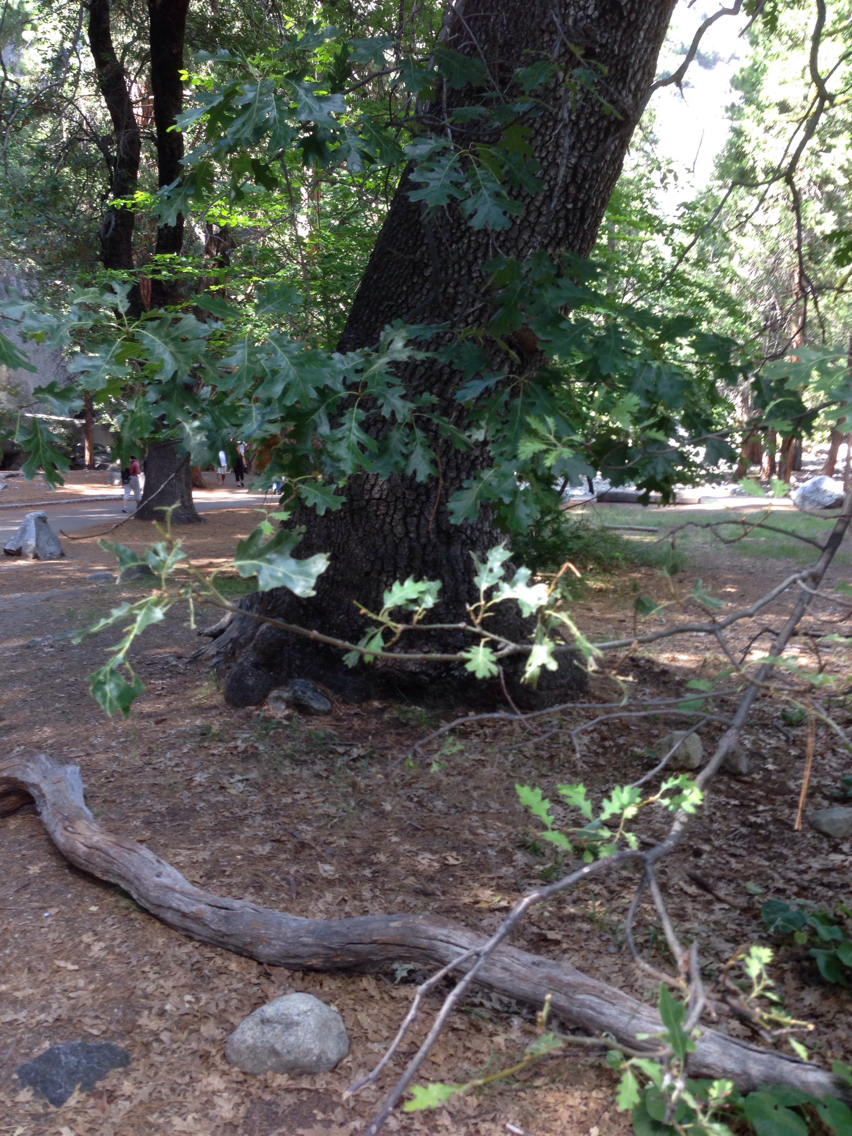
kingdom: Plantae
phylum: Tracheophyta
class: Magnoliopsida
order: Fagales
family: Fagaceae
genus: Quercus
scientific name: Quercus kelloggii
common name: California black oak
